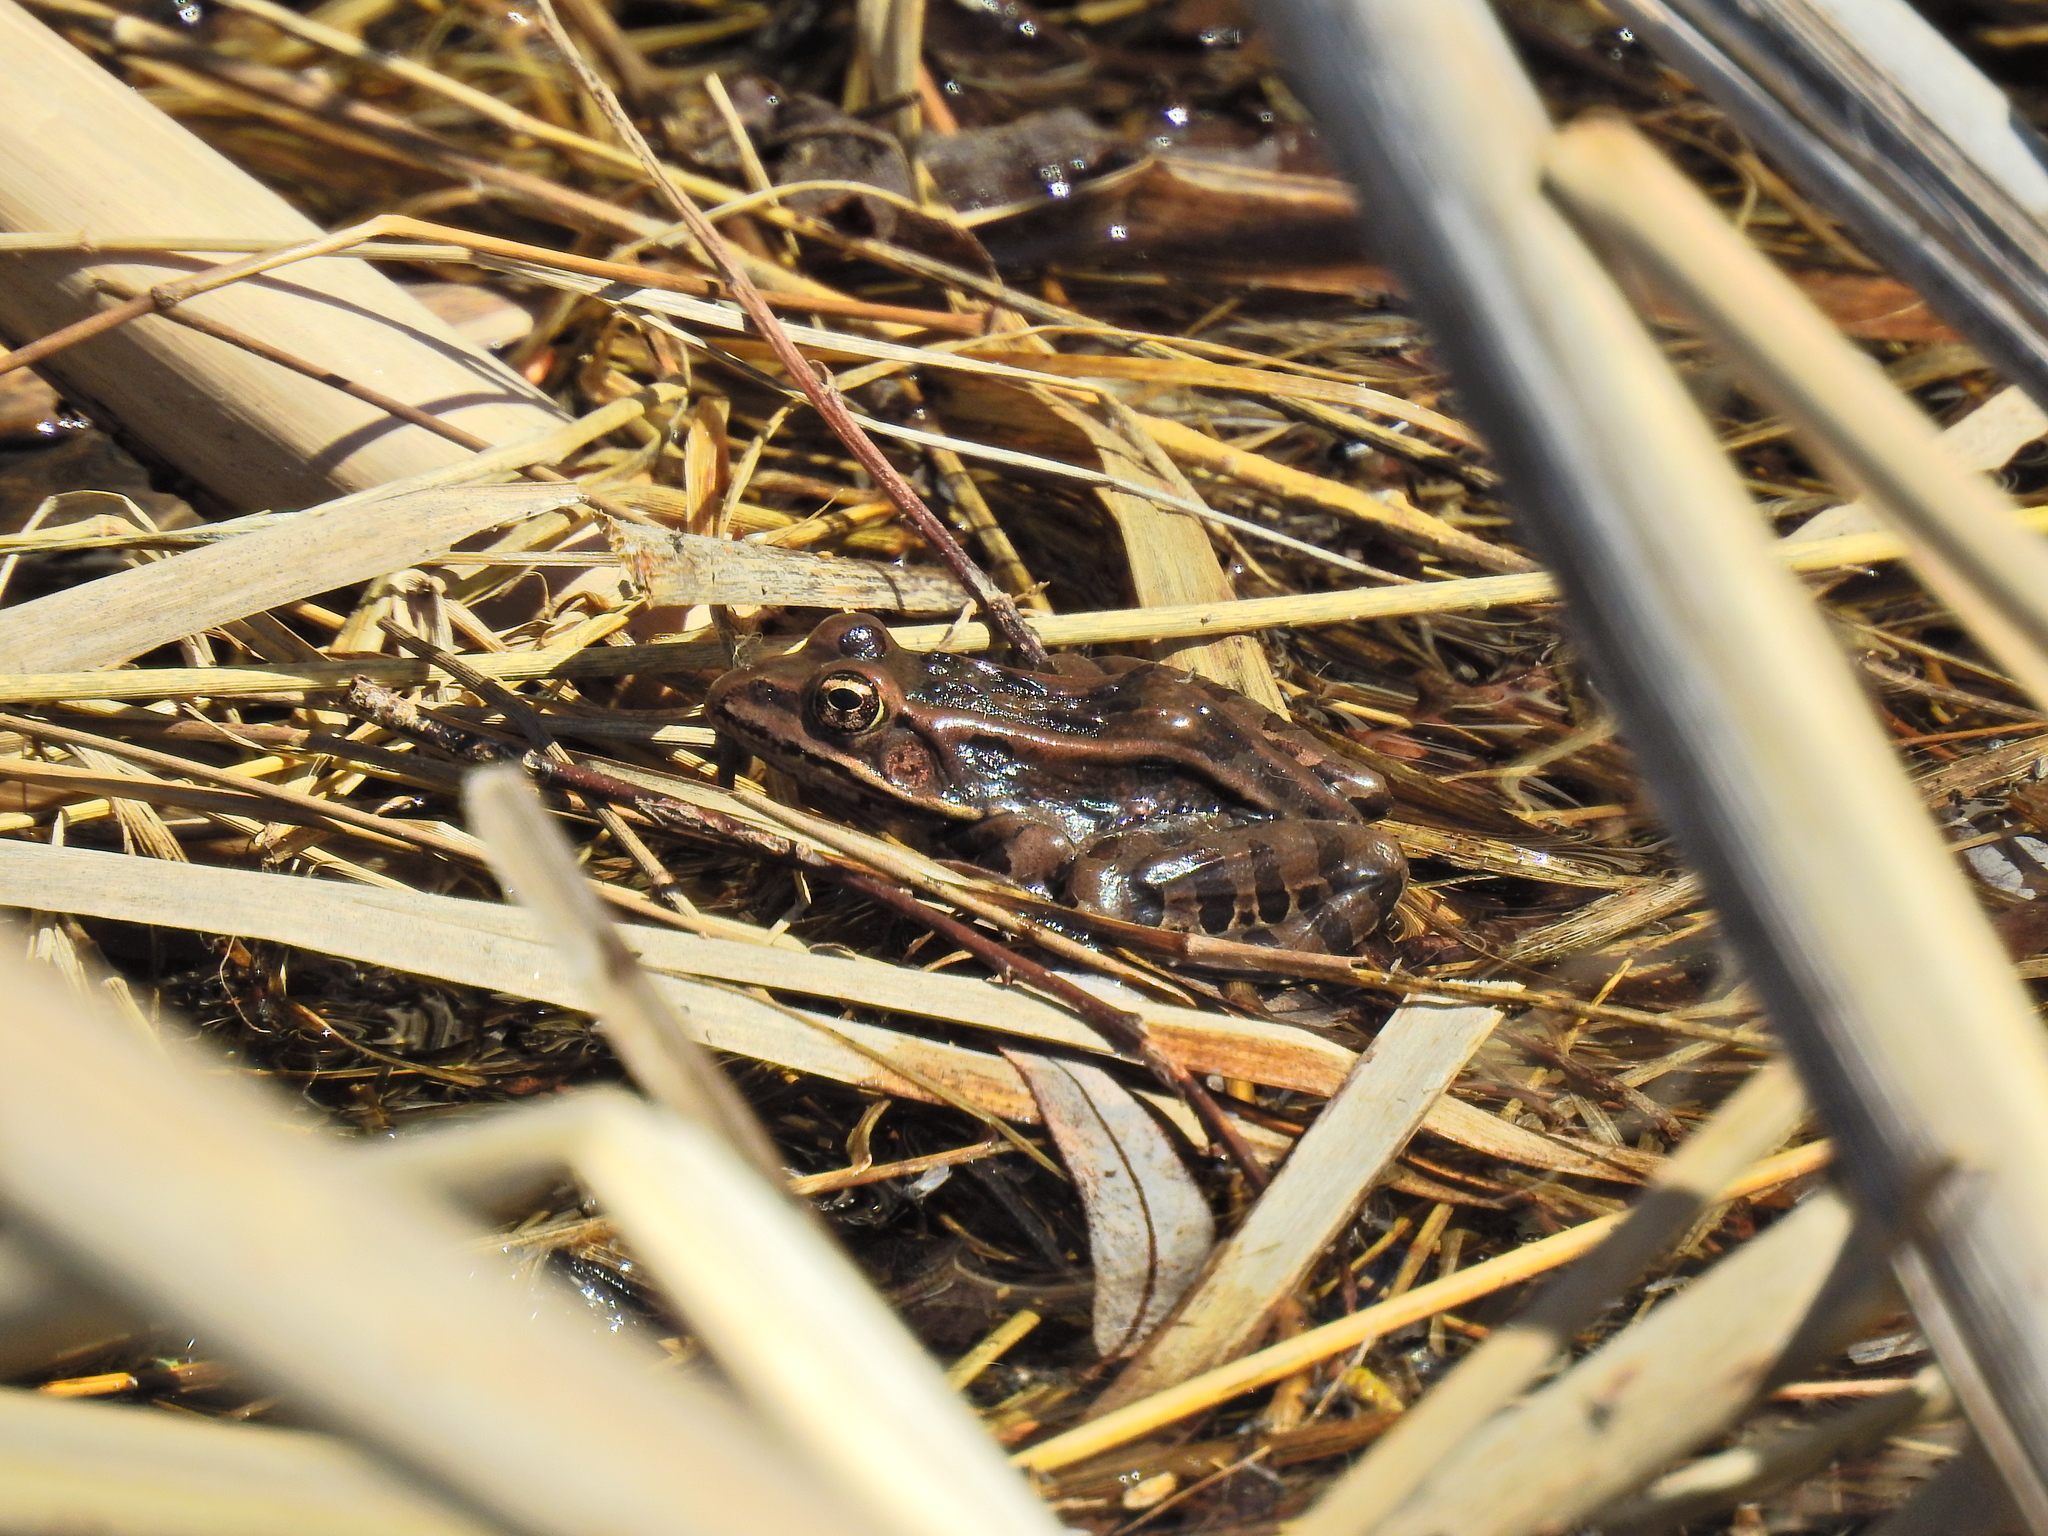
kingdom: Animalia
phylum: Chordata
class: Amphibia
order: Anura
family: Ranidae
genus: Lithobates
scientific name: Lithobates pipiens
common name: Northern leopard frog
